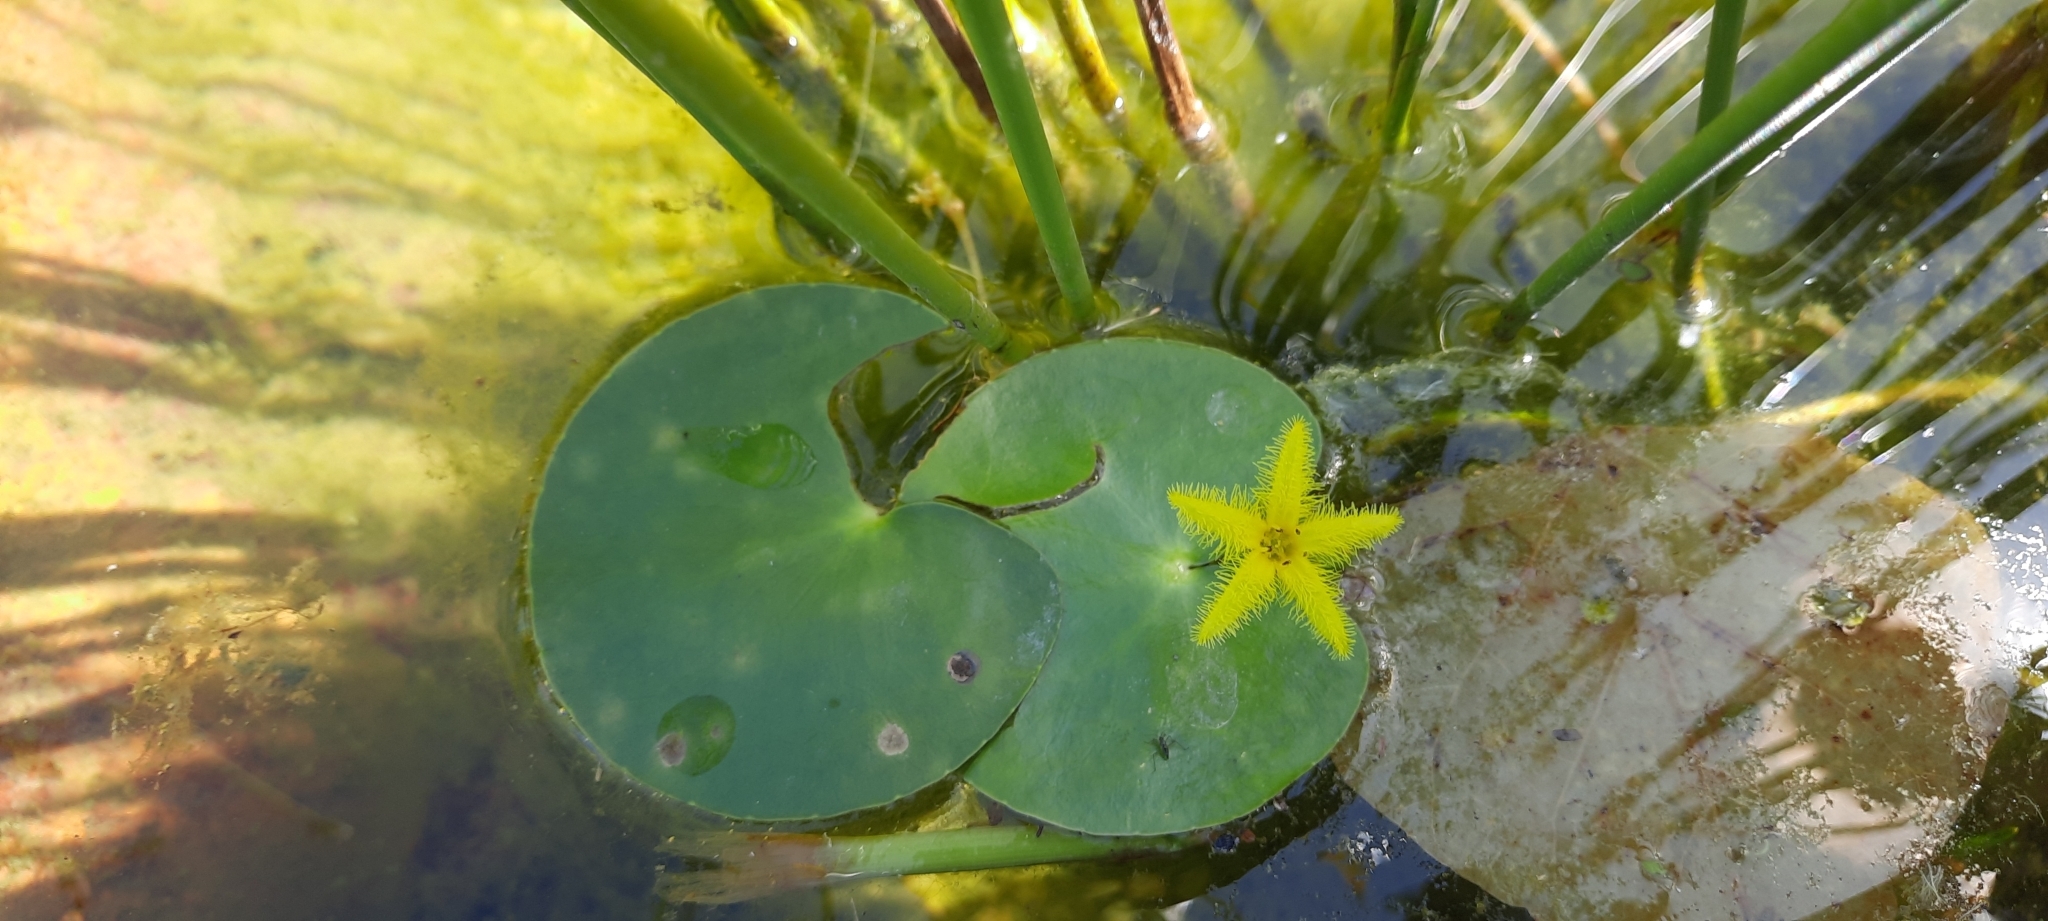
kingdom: Plantae
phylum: Tracheophyta
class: Magnoliopsida
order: Asterales
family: Menyanthaceae
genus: Nymphoides
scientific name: Nymphoides thunbergiana
